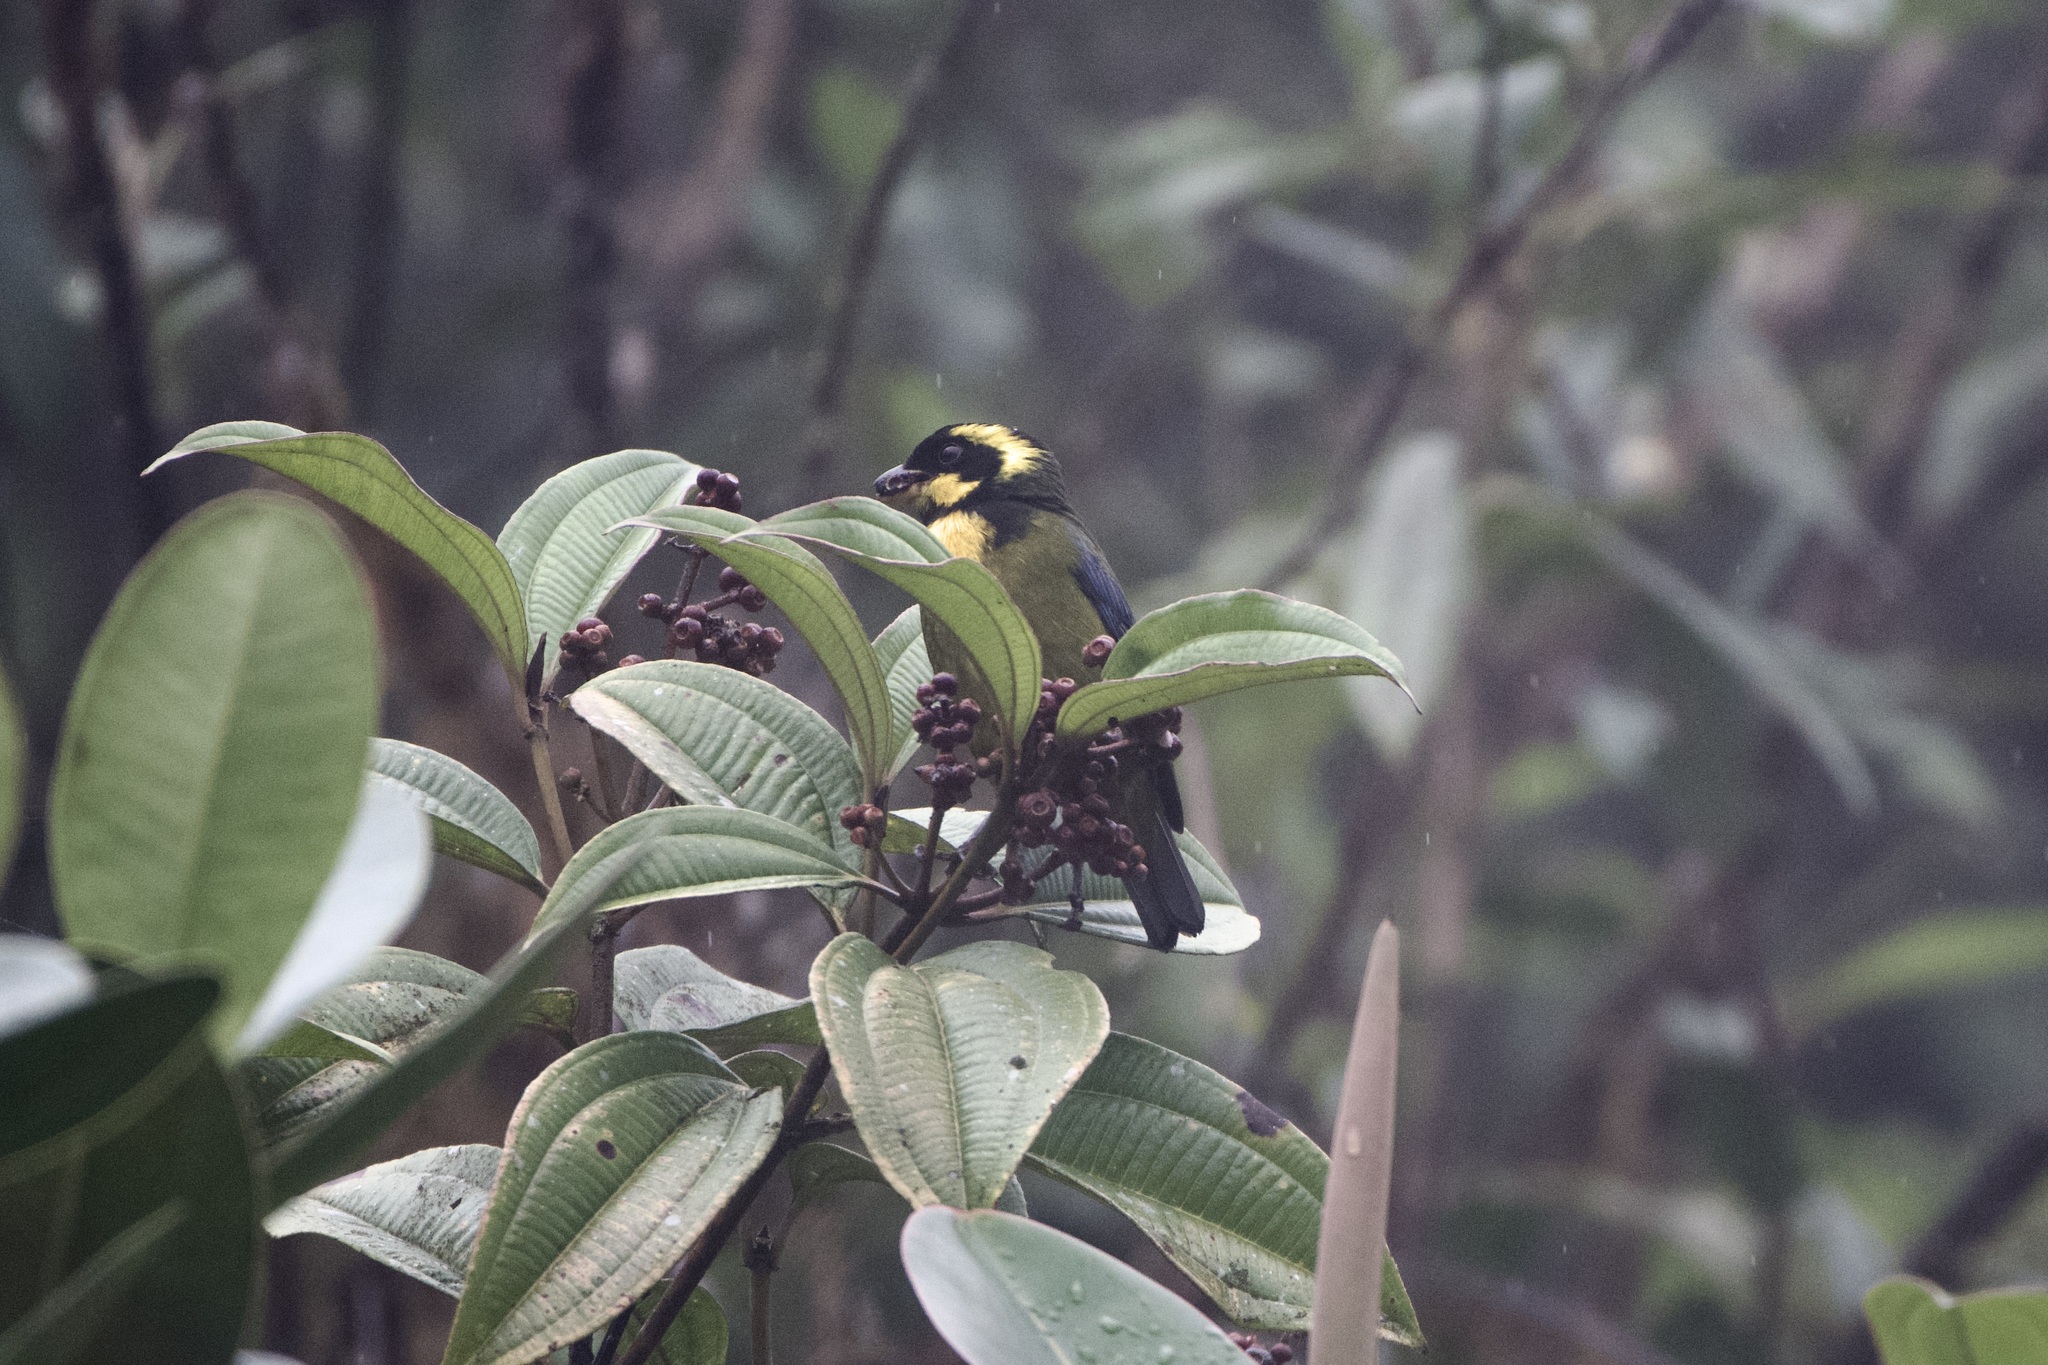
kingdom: Animalia
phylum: Chordata
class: Aves
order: Passeriformes
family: Thraupidae
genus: Bangsia
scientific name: Bangsia aureocincta
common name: Gold-ringed tanager
